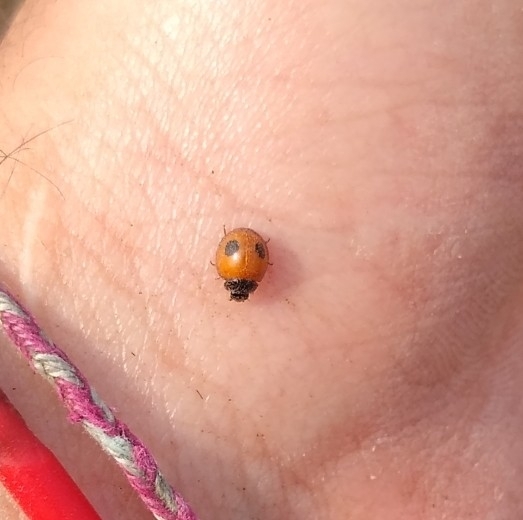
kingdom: Animalia
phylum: Arthropoda
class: Insecta
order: Coleoptera
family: Coccinellidae
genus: Zagreus
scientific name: Zagreus bimaculosus
